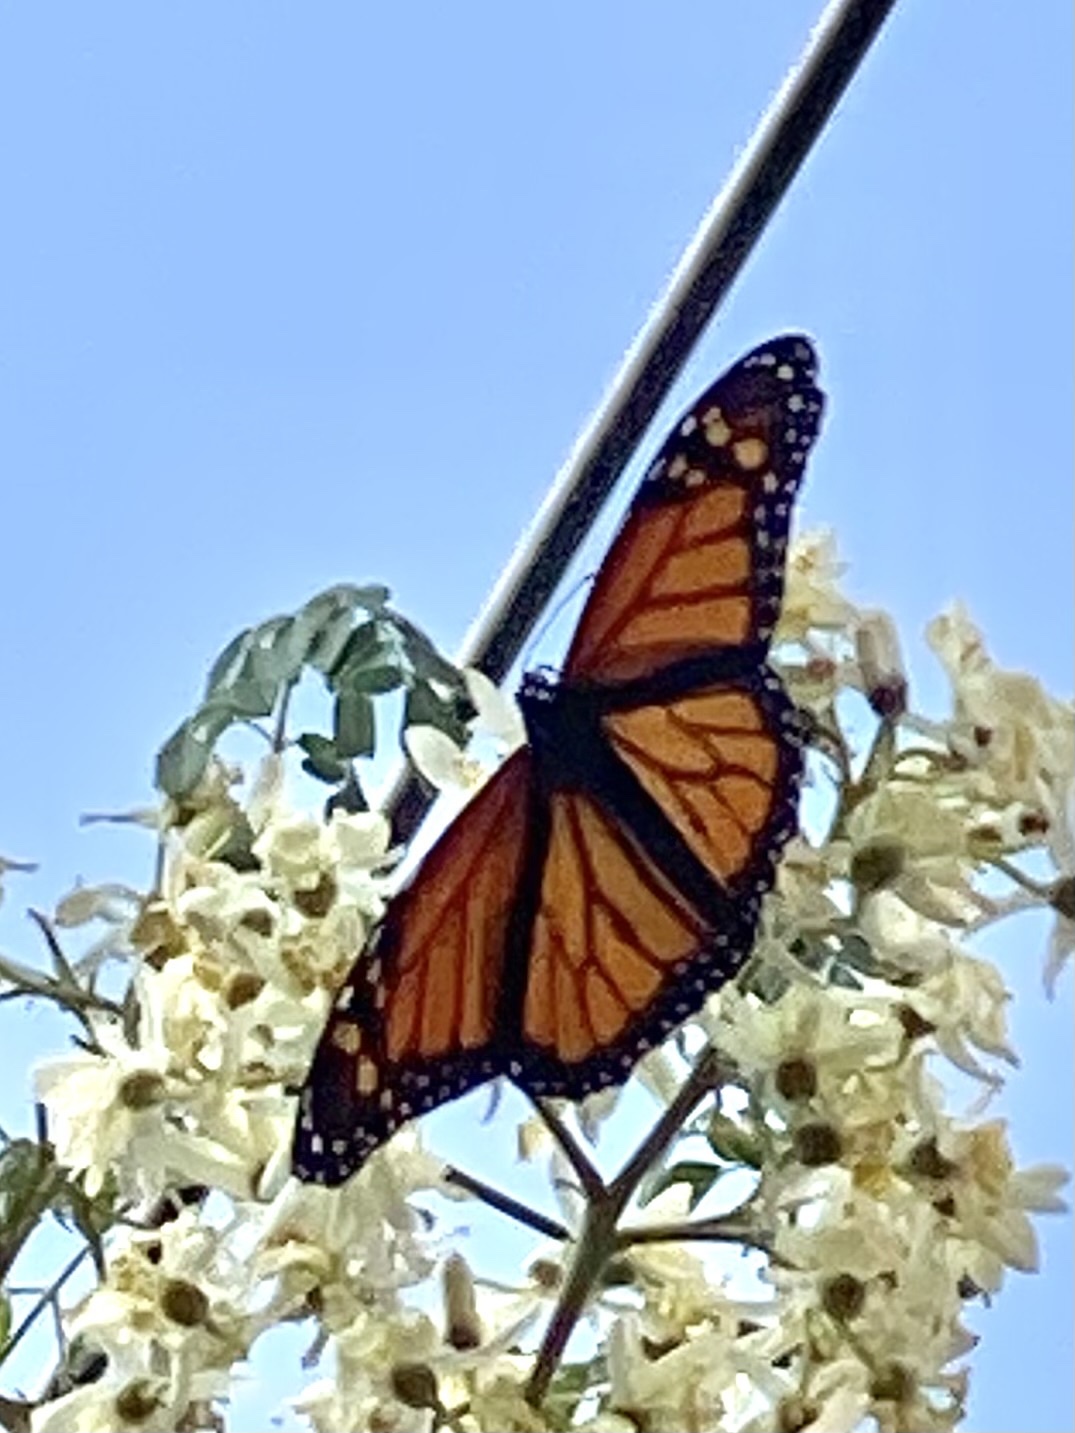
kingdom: Animalia
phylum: Arthropoda
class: Insecta
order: Lepidoptera
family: Nymphalidae
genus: Danaus
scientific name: Danaus plexippus
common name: Monarch
